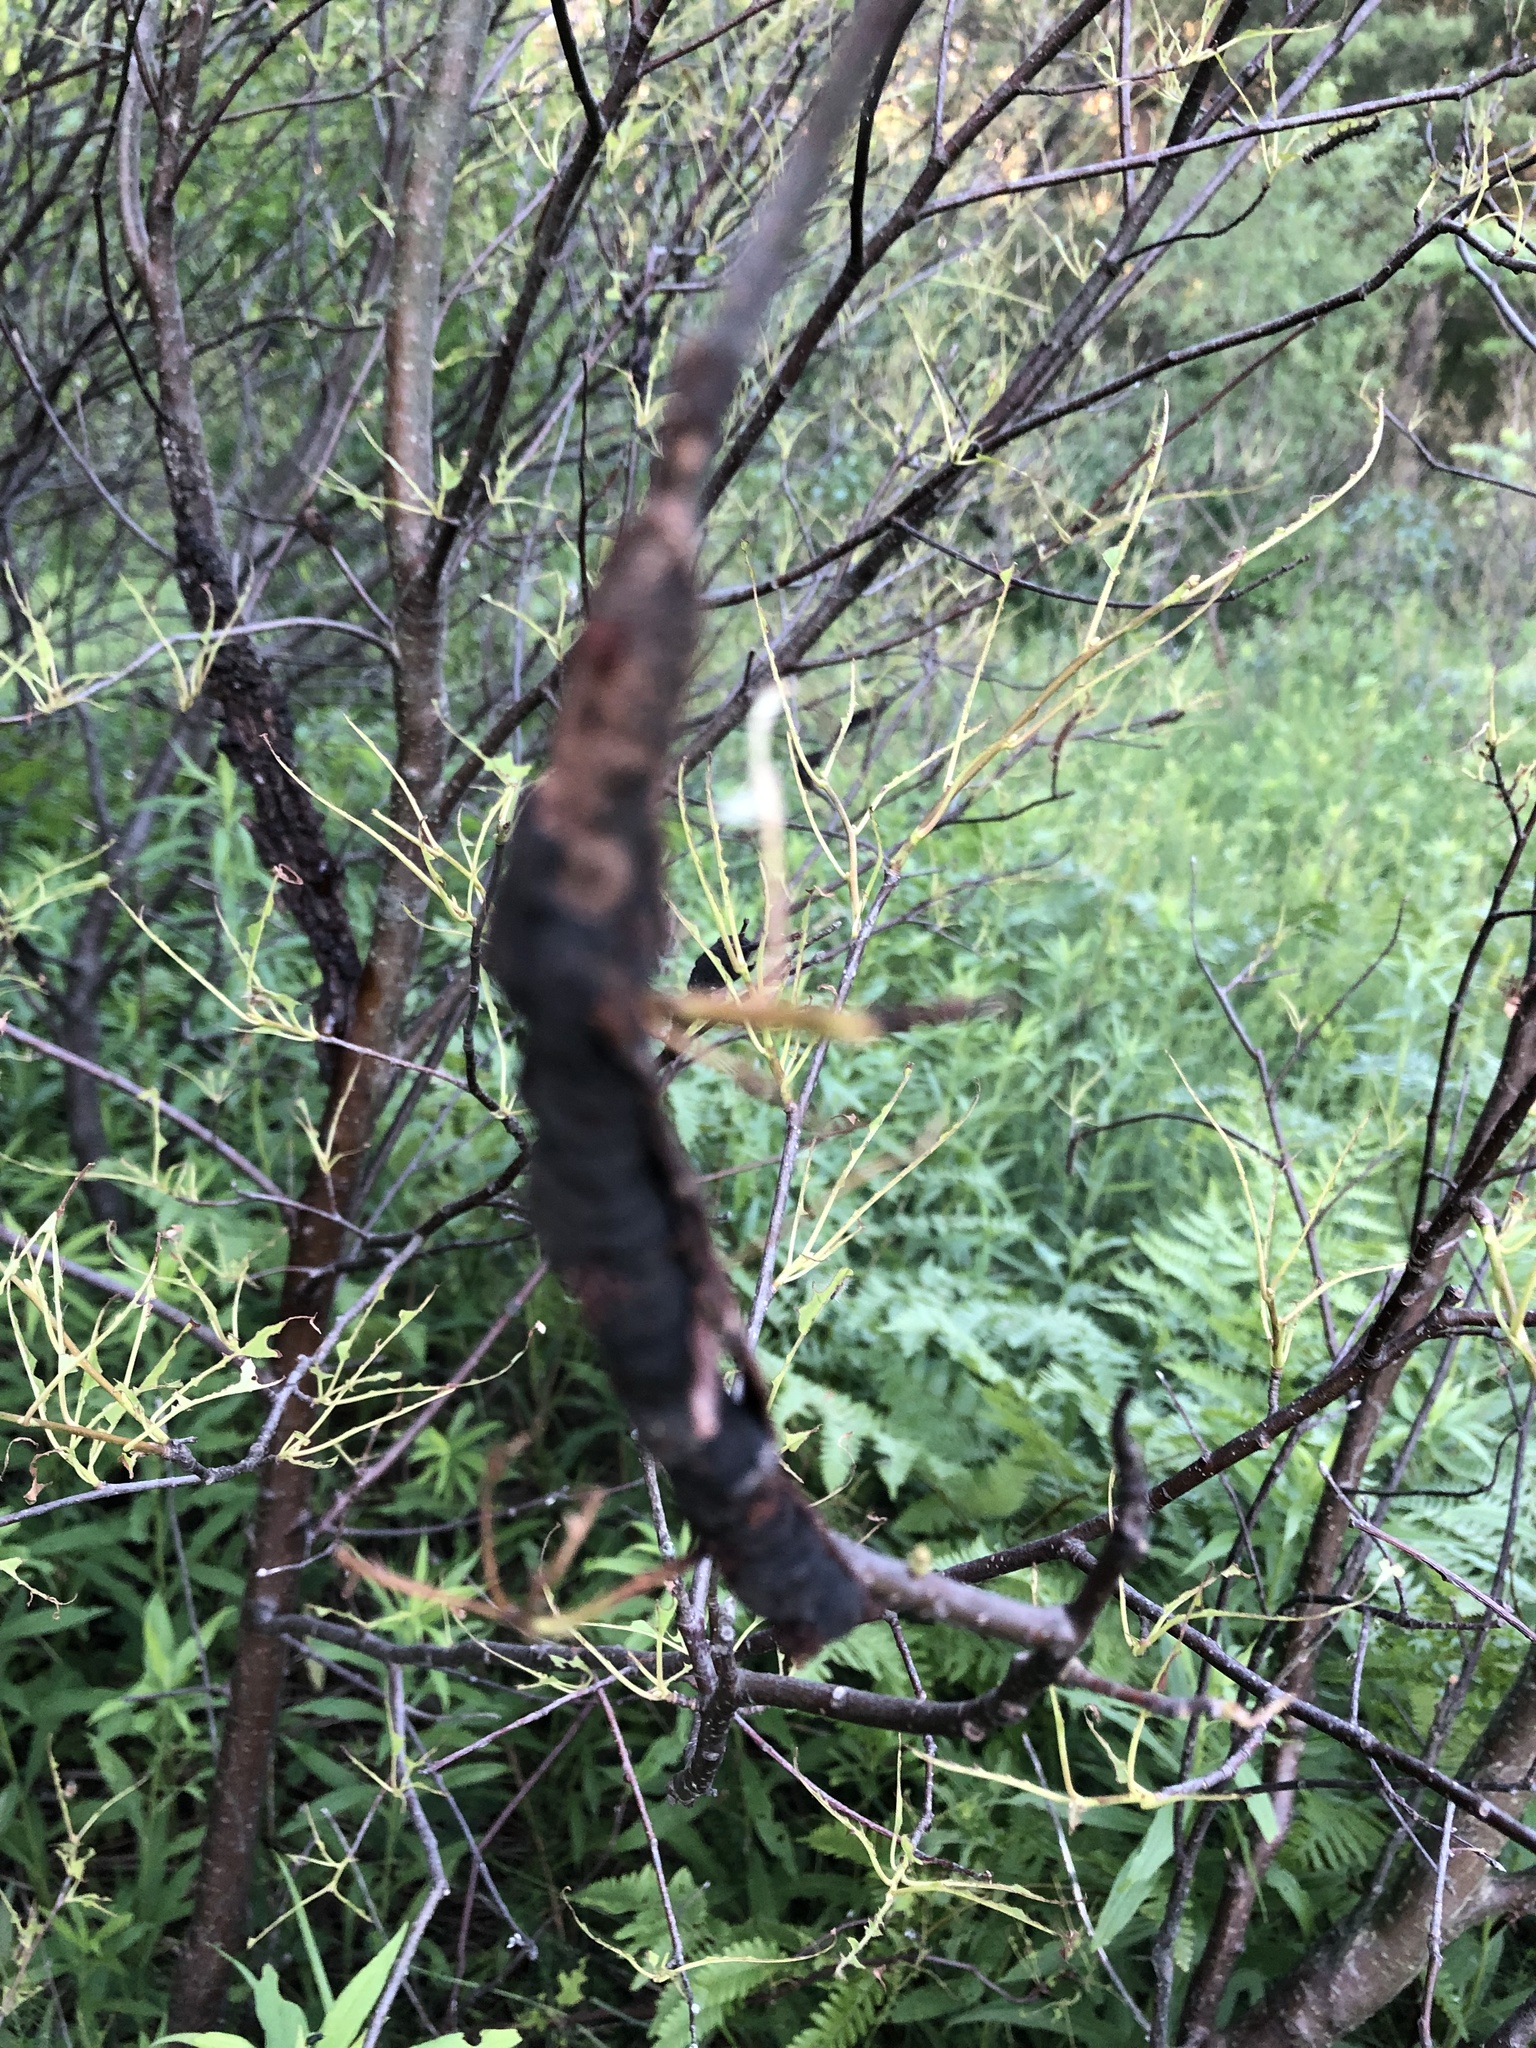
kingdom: Fungi
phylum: Ascomycota
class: Dothideomycetes
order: Venturiales
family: Venturiaceae
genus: Apiosporina
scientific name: Apiosporina morbosa
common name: Black knot
